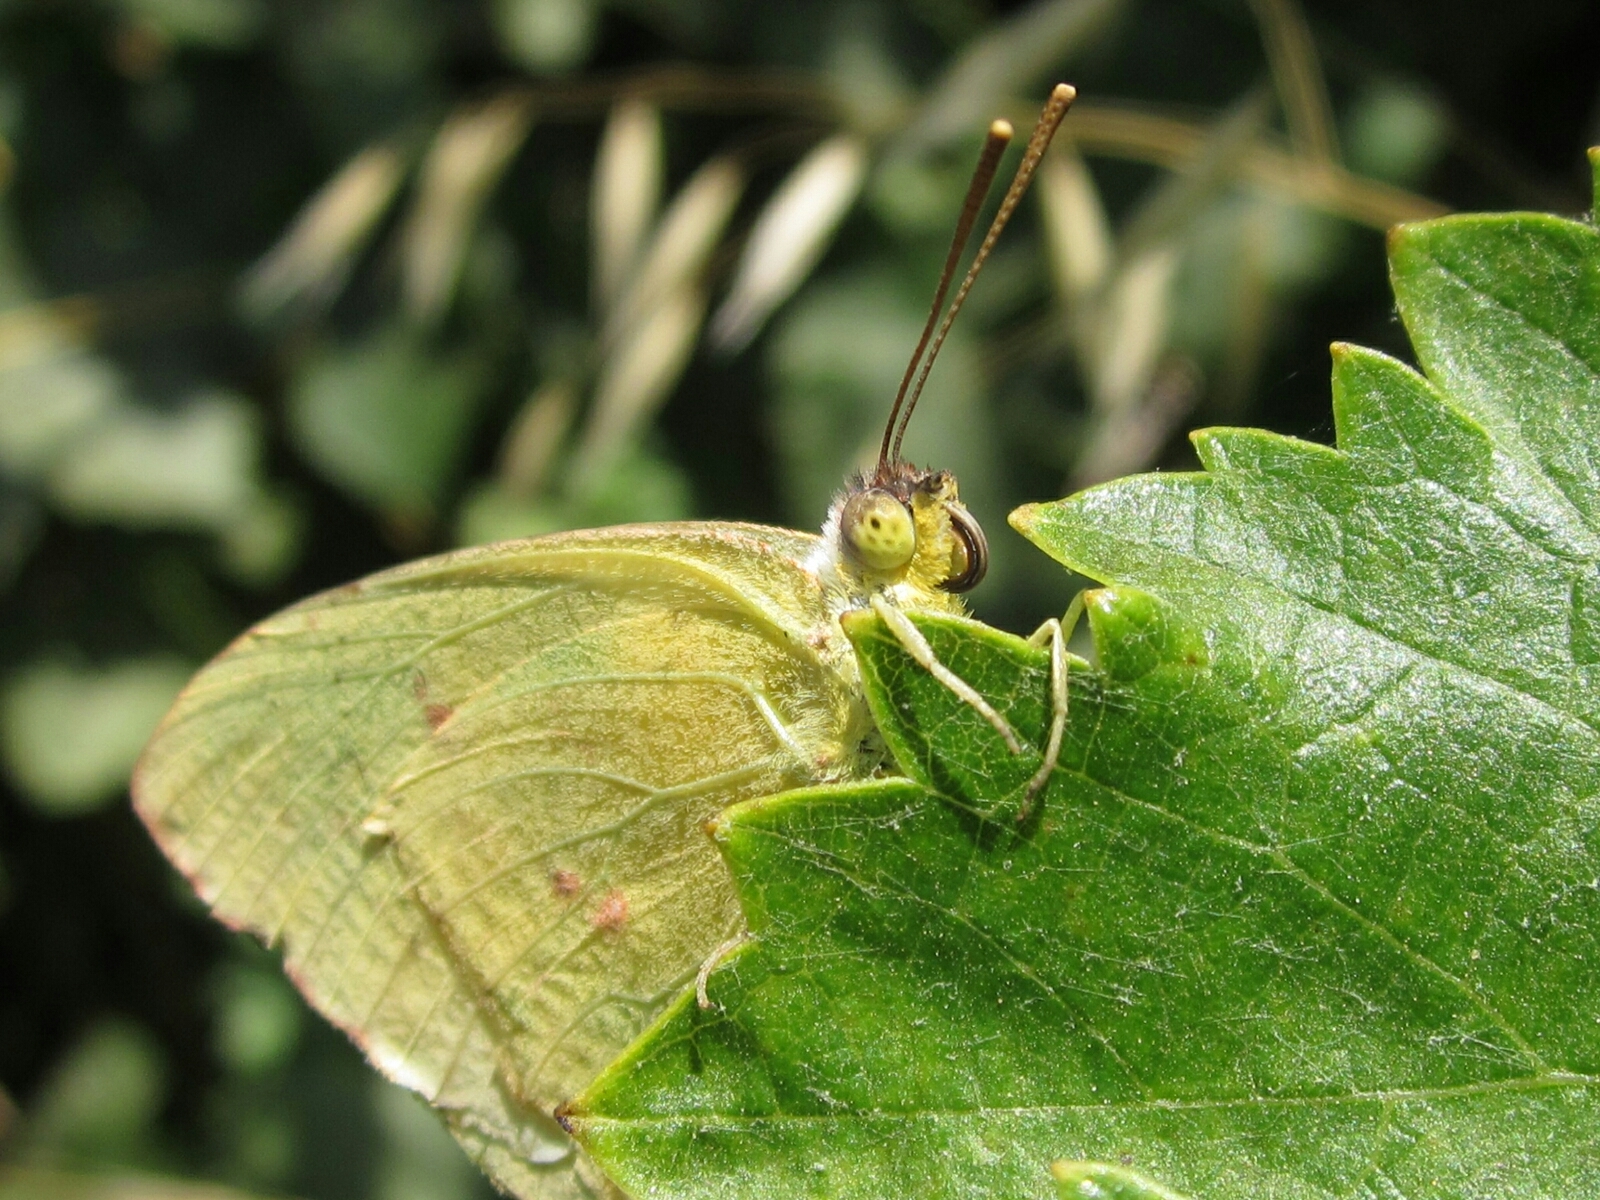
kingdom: Animalia
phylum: Arthropoda
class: Insecta
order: Lepidoptera
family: Pieridae
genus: Phoebis
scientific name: Phoebis sennae
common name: Cloudless sulphur
